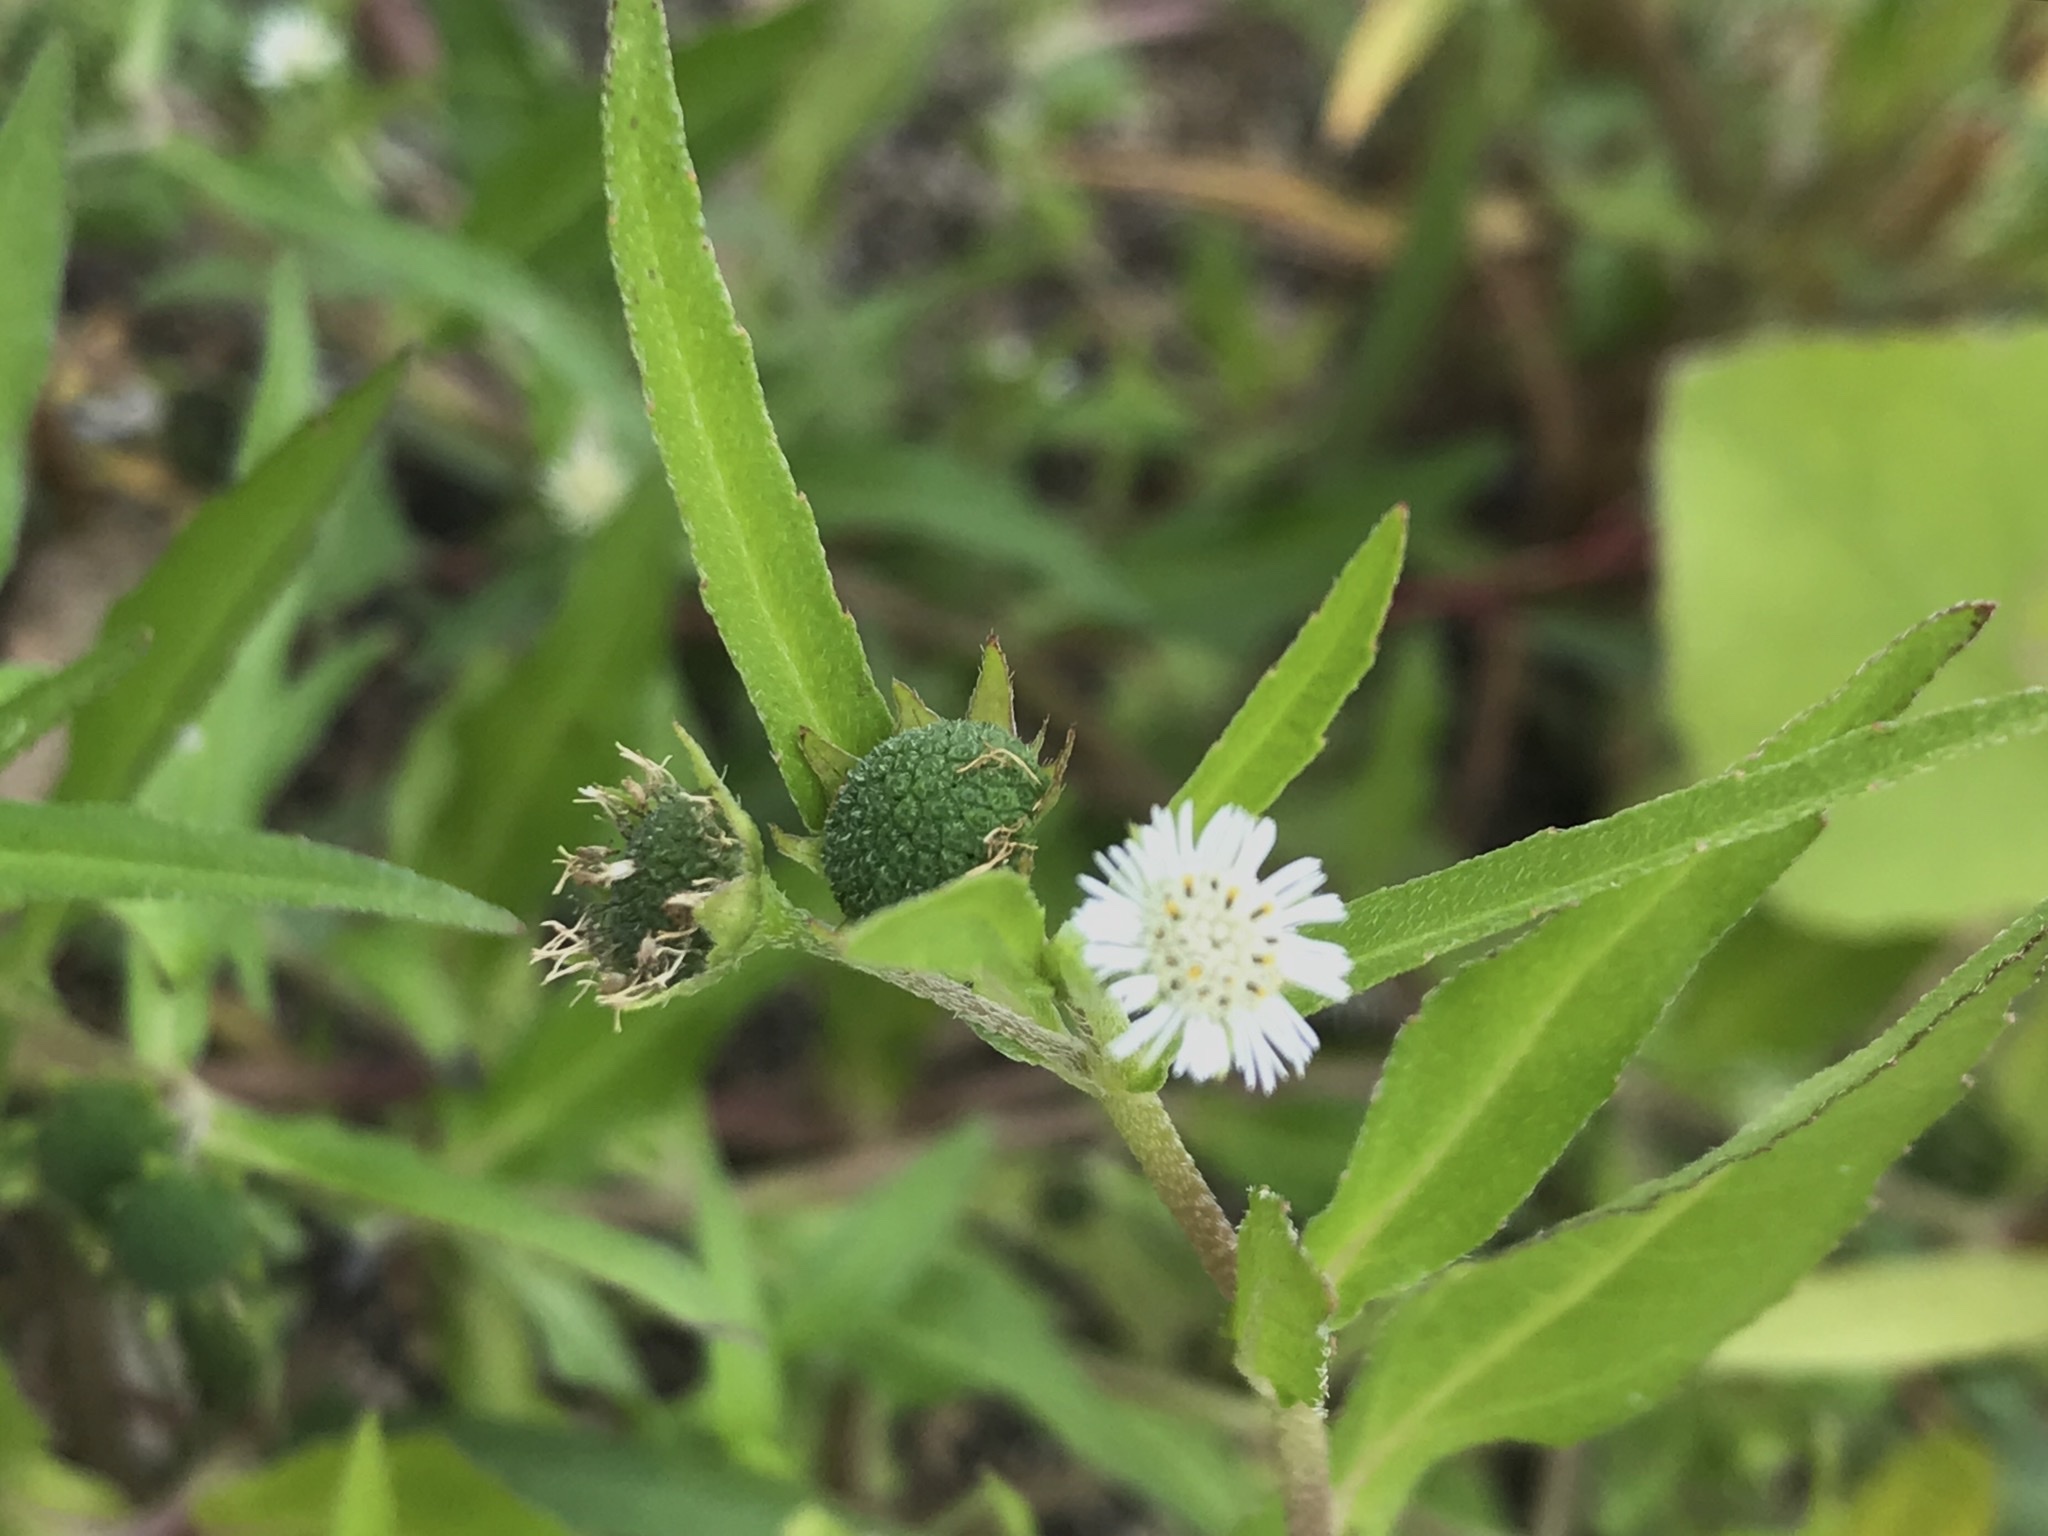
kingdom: Plantae
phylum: Tracheophyta
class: Magnoliopsida
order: Asterales
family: Asteraceae
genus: Eclipta
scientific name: Eclipta prostrata
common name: False daisy
